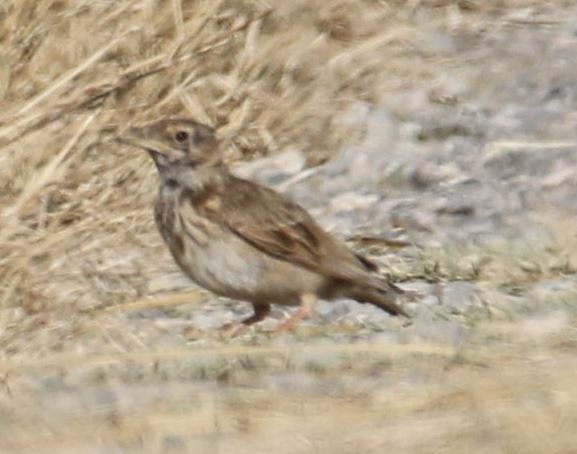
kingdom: Animalia
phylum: Chordata
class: Aves
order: Passeriformes
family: Alaudidae
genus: Galerida
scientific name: Galerida cristata
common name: Crested lark
